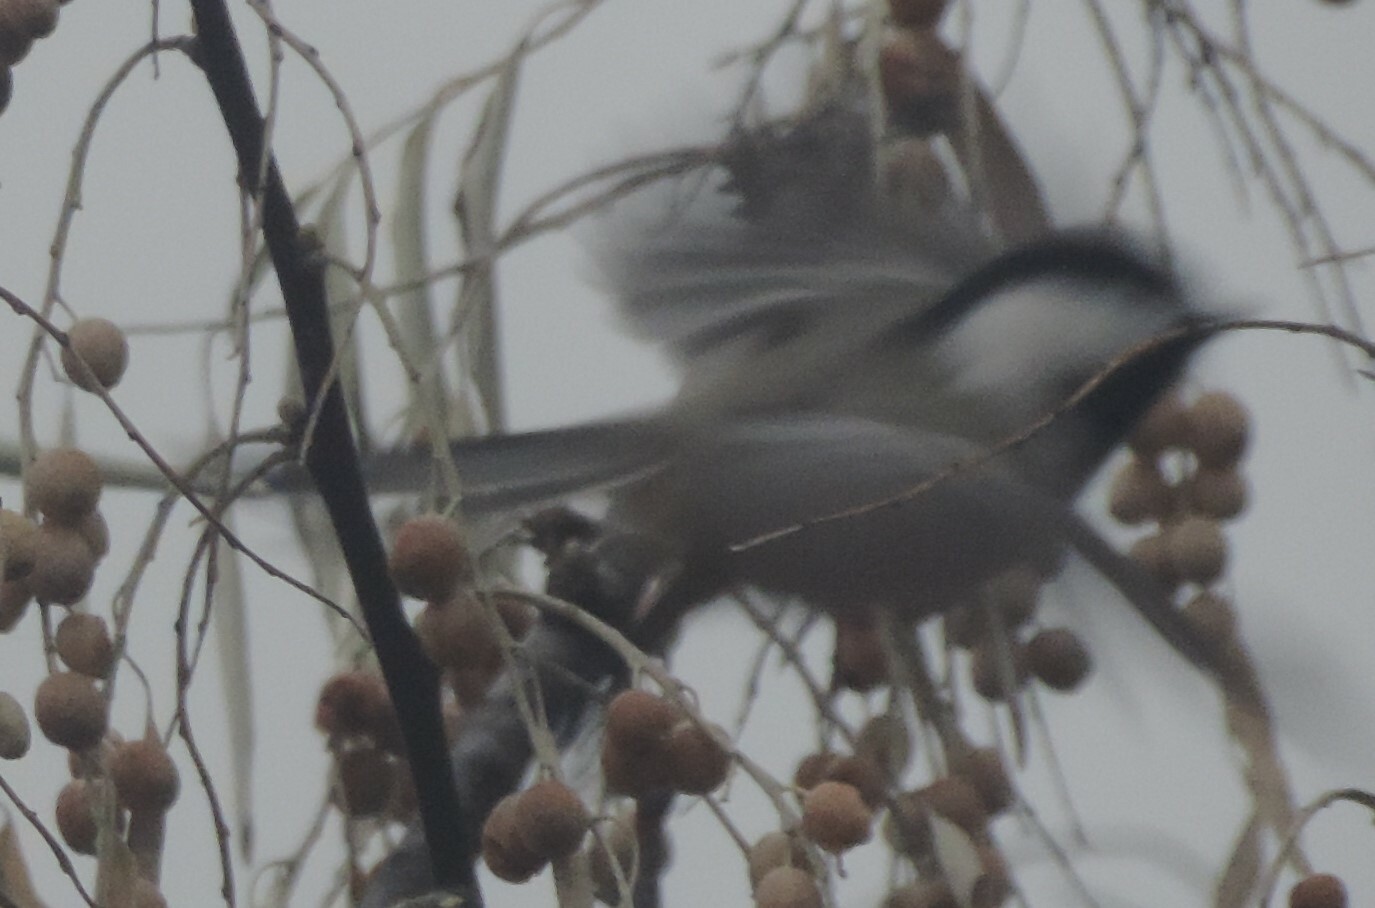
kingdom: Animalia
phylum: Chordata
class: Aves
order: Passeriformes
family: Paridae
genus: Poecile
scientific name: Poecile atricapillus
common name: Black-capped chickadee
